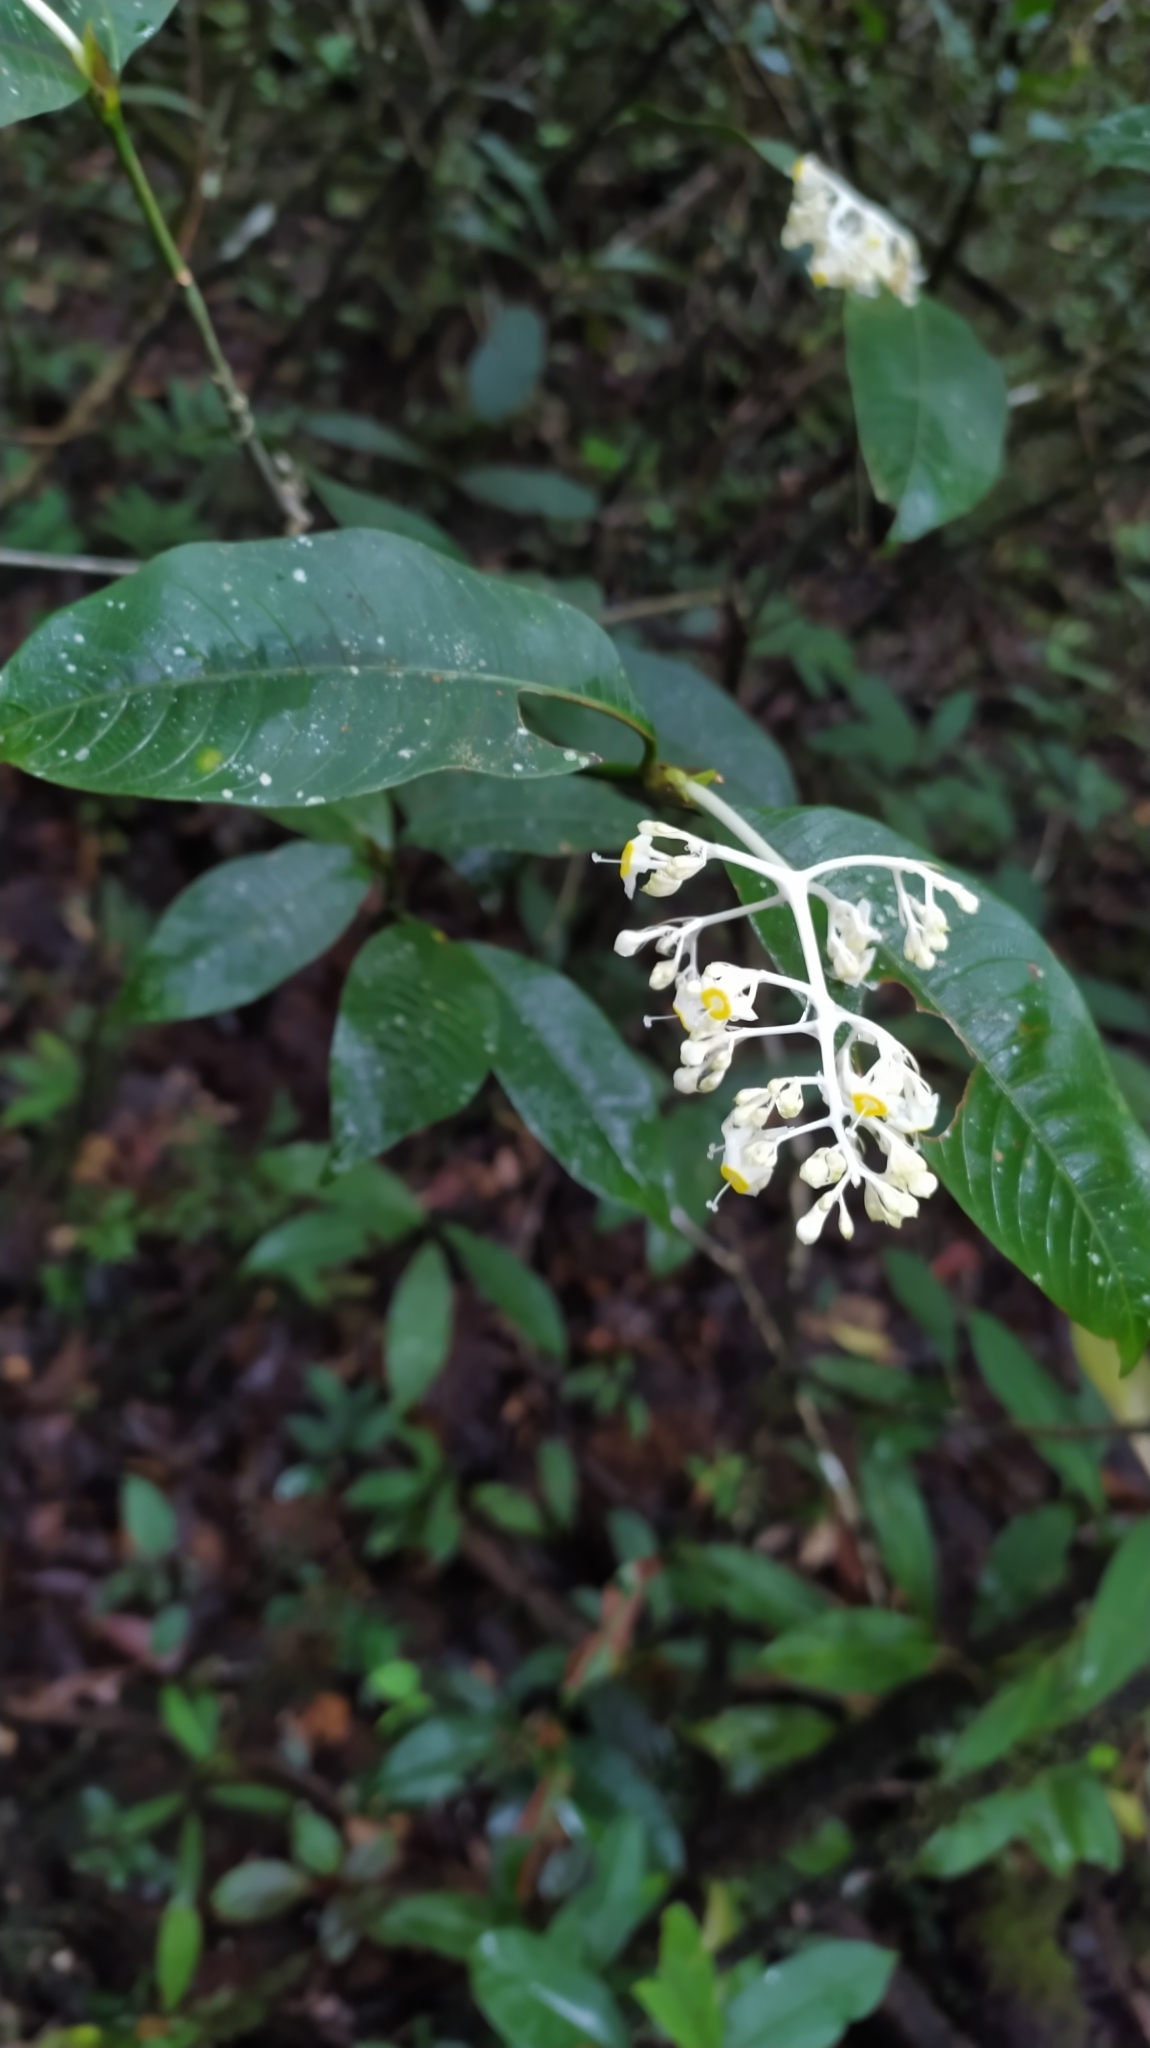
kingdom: Plantae
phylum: Tracheophyta
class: Magnoliopsida
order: Gentianales
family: Rubiaceae
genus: Palicourea
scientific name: Palicourea violacea
